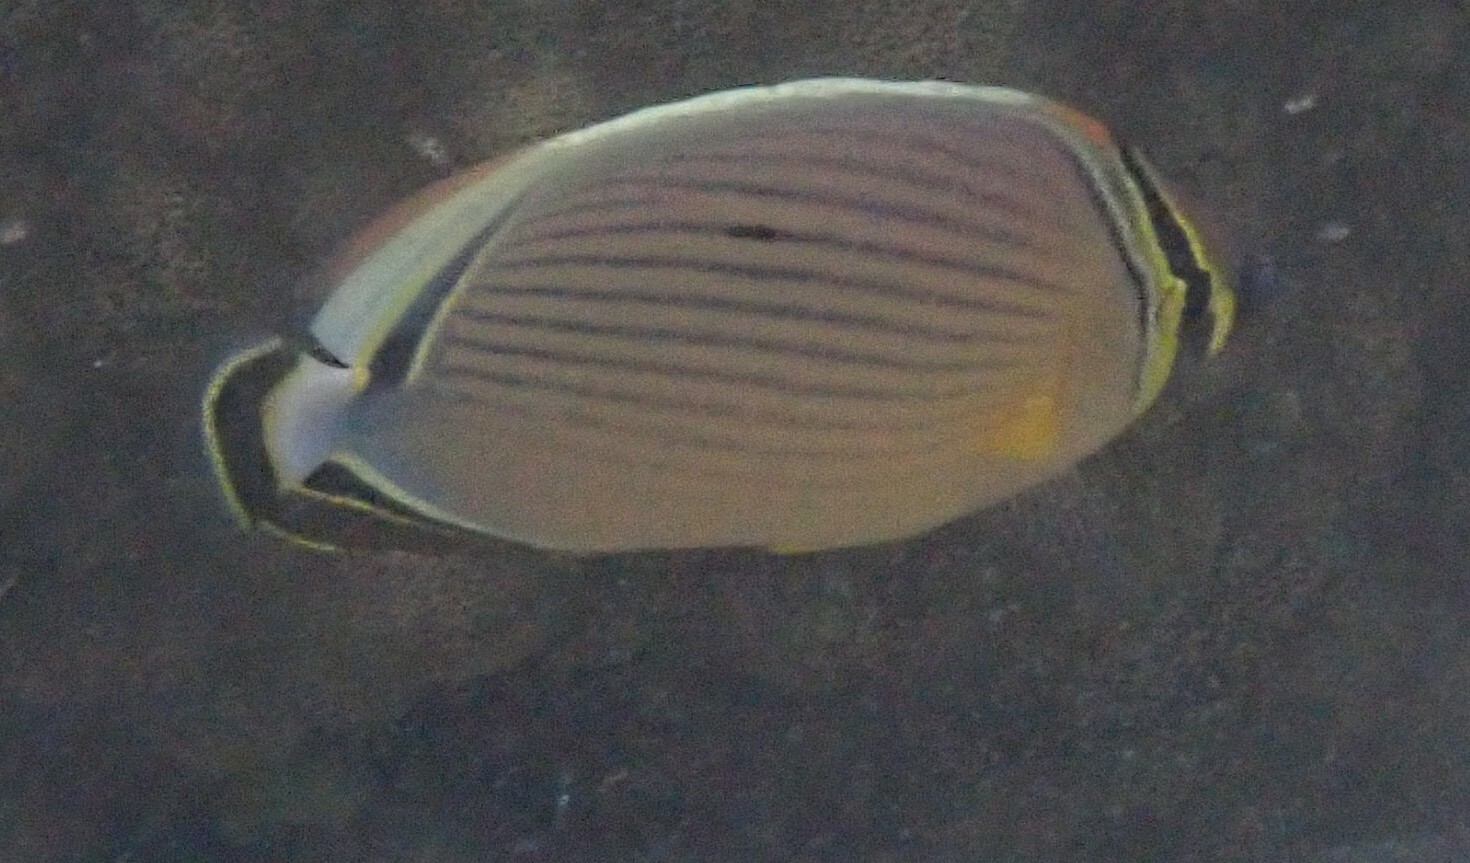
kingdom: Animalia
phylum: Chordata
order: Perciformes
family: Chaetodontidae
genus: Chaetodon
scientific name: Chaetodon lunulatus
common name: Redfin butterflyfish
